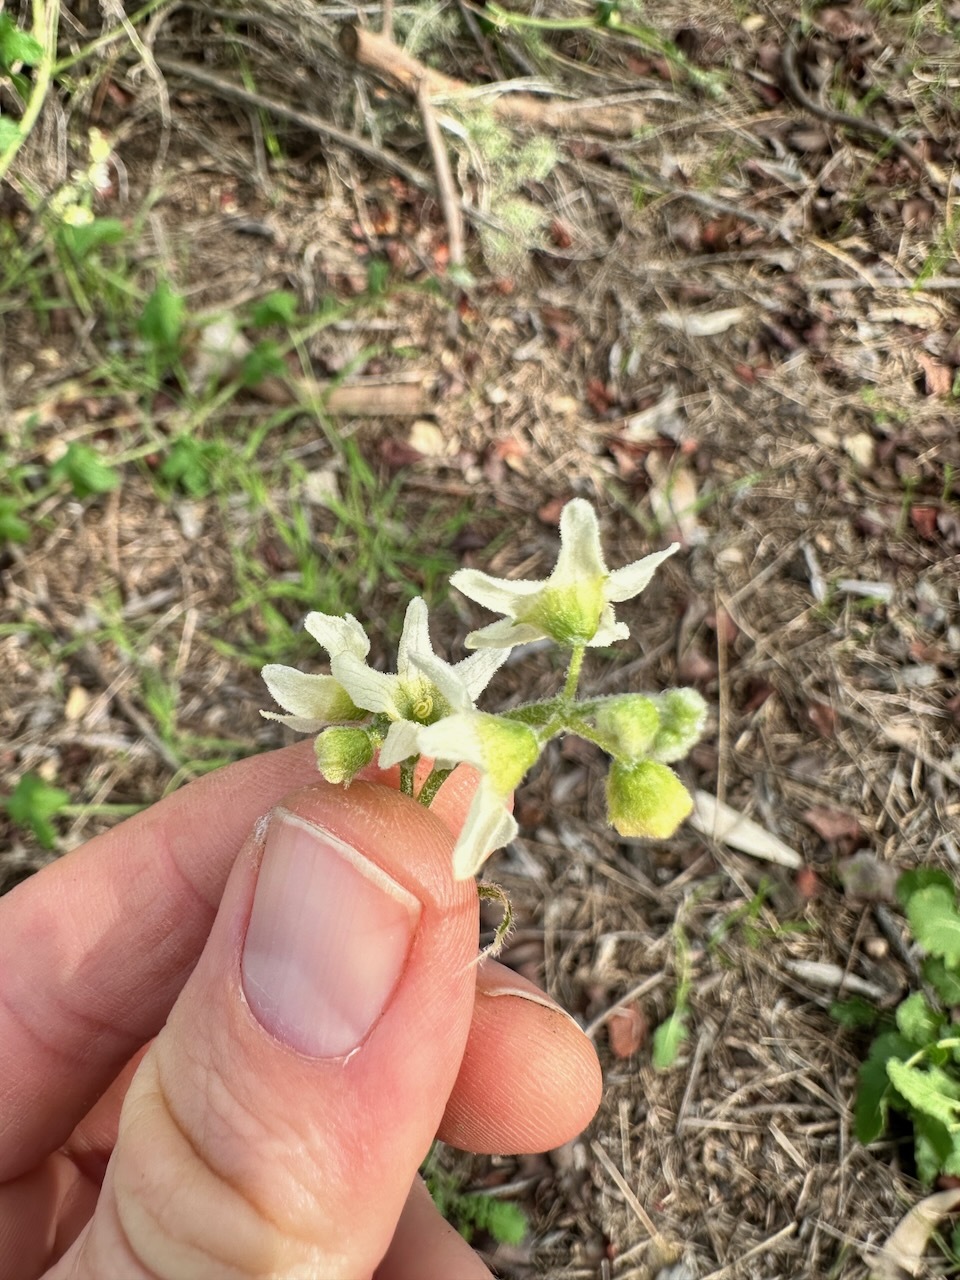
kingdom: Plantae
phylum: Tracheophyta
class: Magnoliopsida
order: Cucurbitales
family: Cucurbitaceae
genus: Marah
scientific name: Marah macrocarpa
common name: Cucamonga manroot
